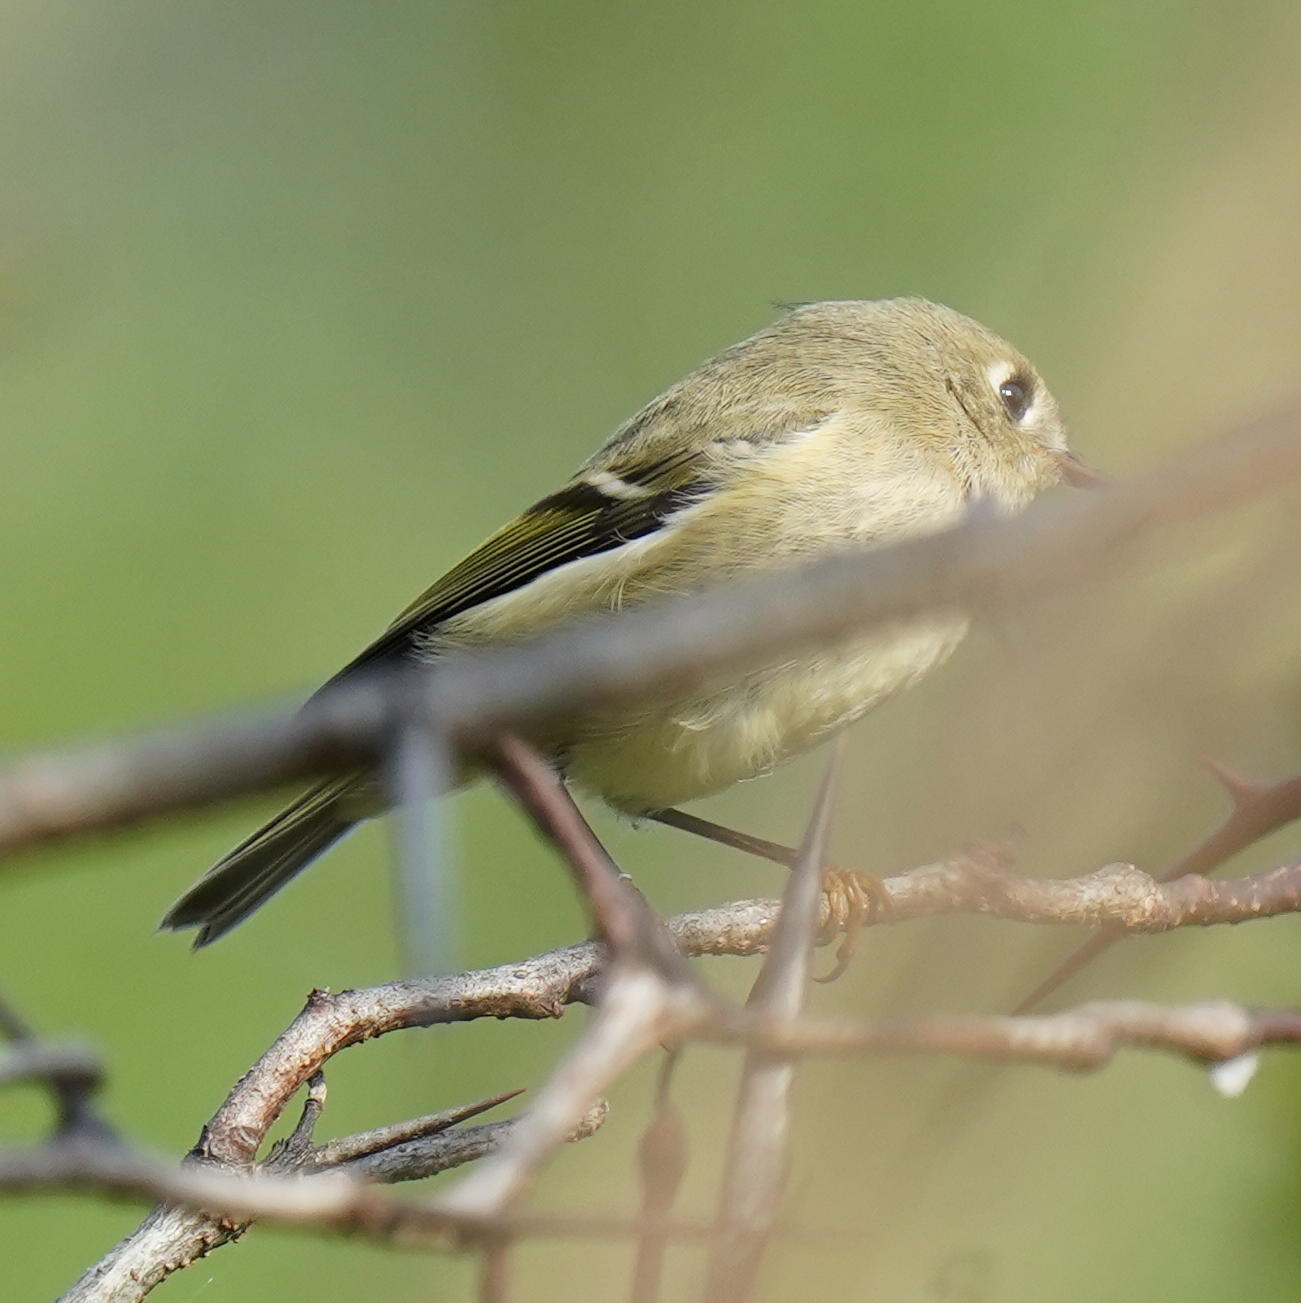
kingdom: Animalia
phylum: Chordata
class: Aves
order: Passeriformes
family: Regulidae
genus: Regulus
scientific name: Regulus calendula
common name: Ruby-crowned kinglet
